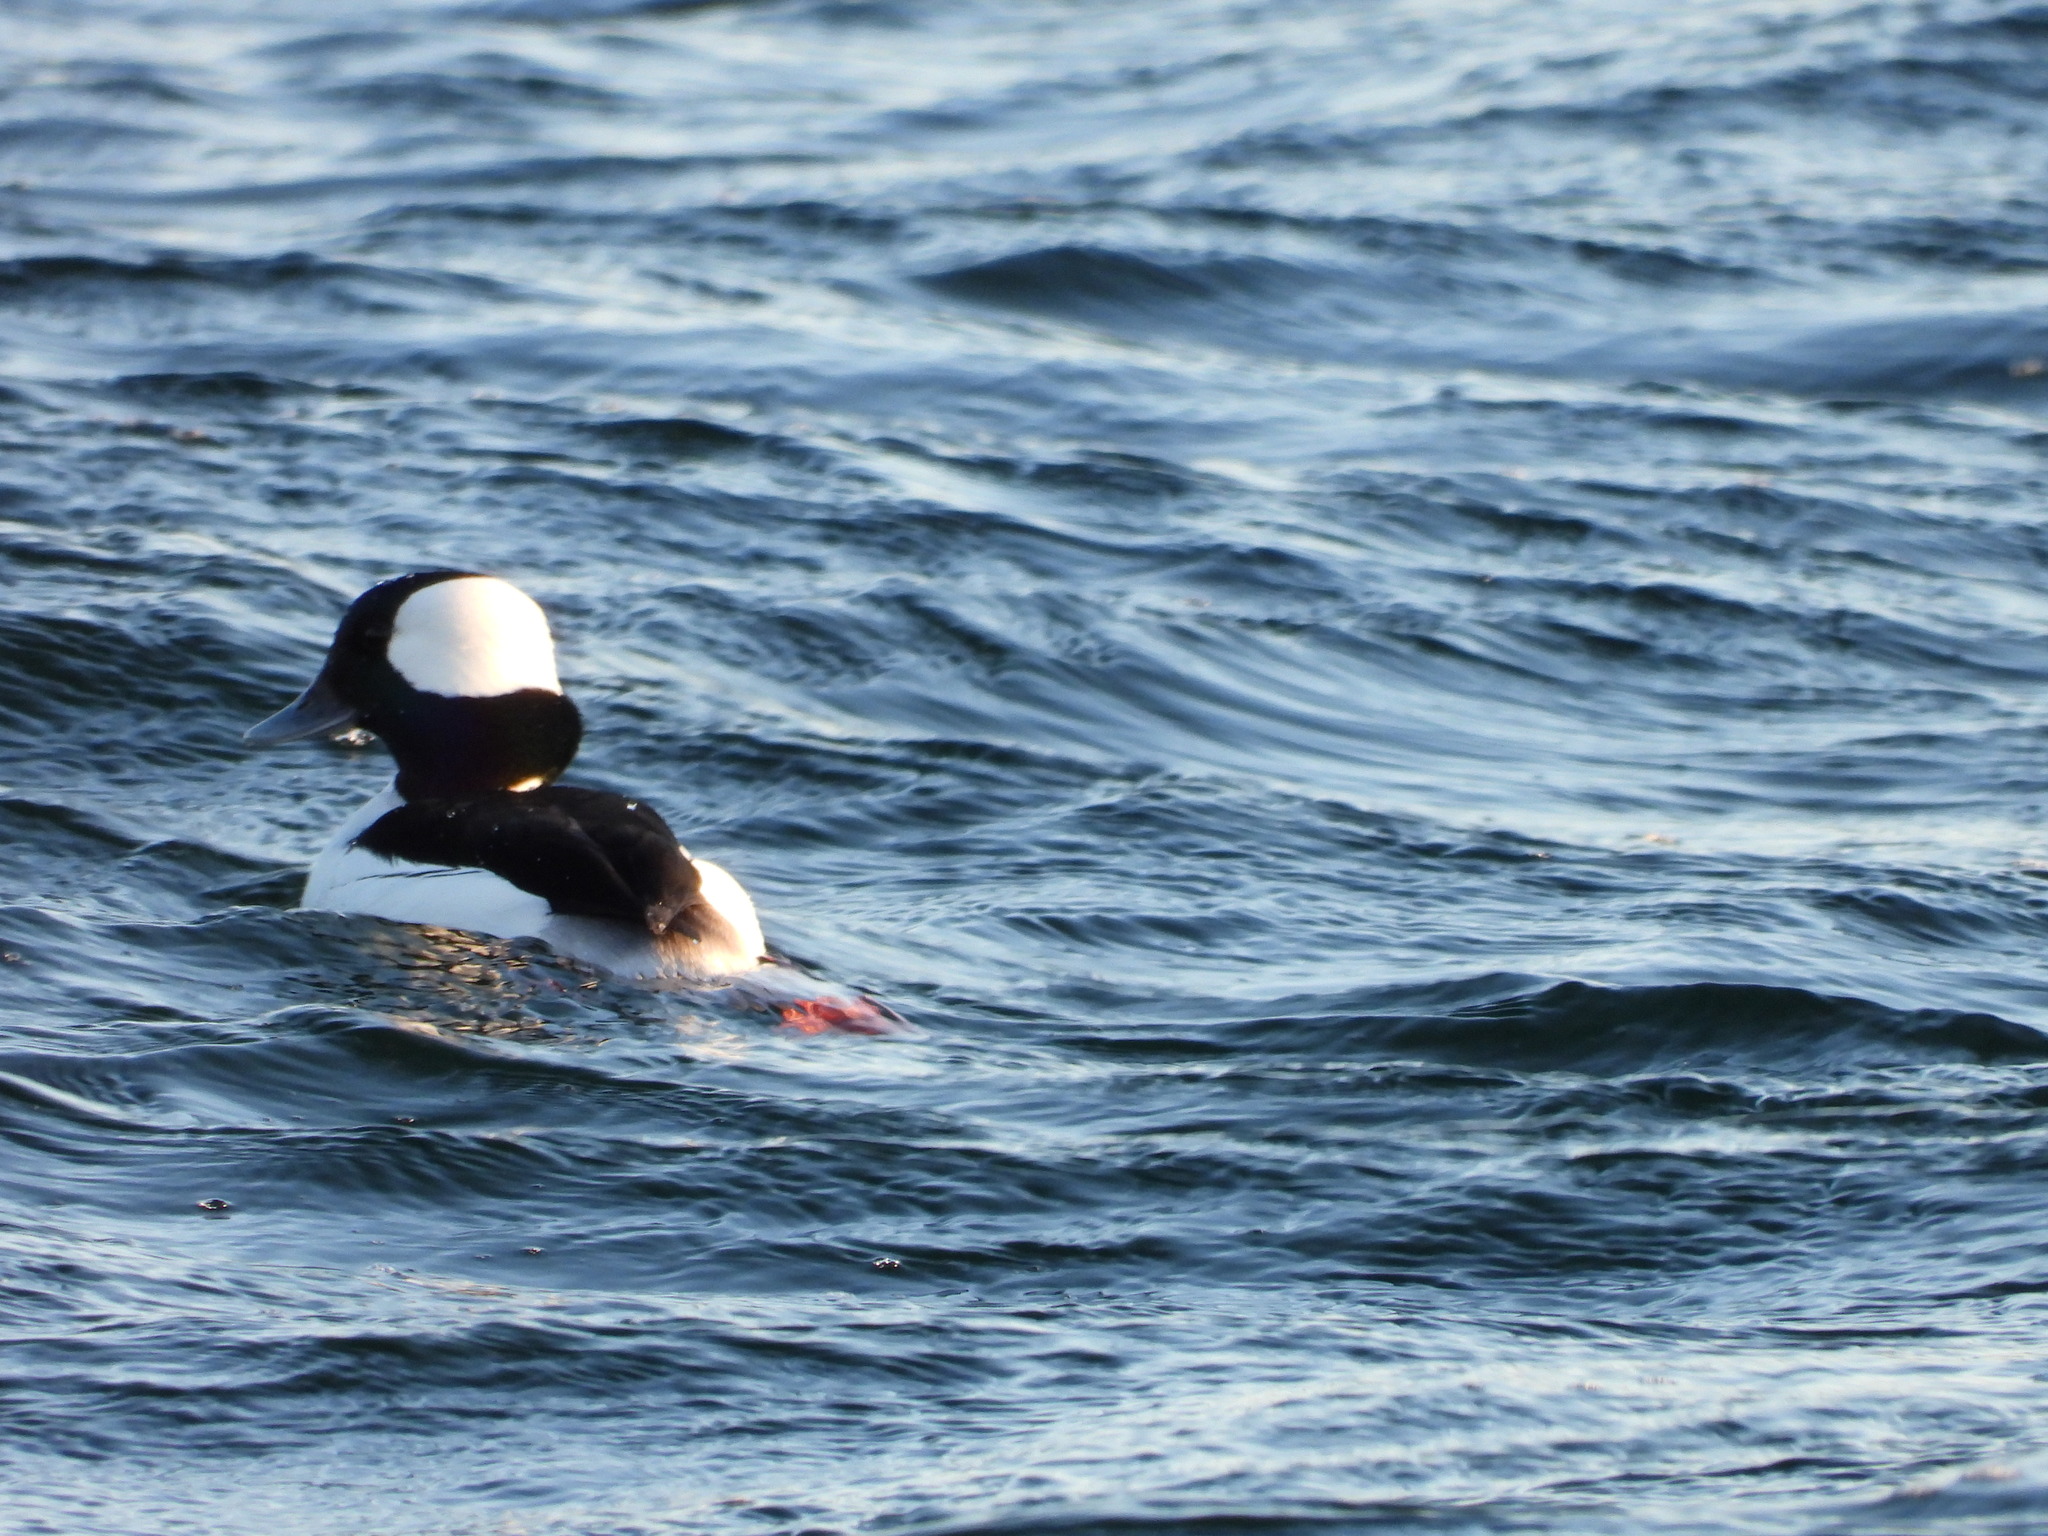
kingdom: Animalia
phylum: Chordata
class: Aves
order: Anseriformes
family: Anatidae
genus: Bucephala
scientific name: Bucephala albeola
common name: Bufflehead
